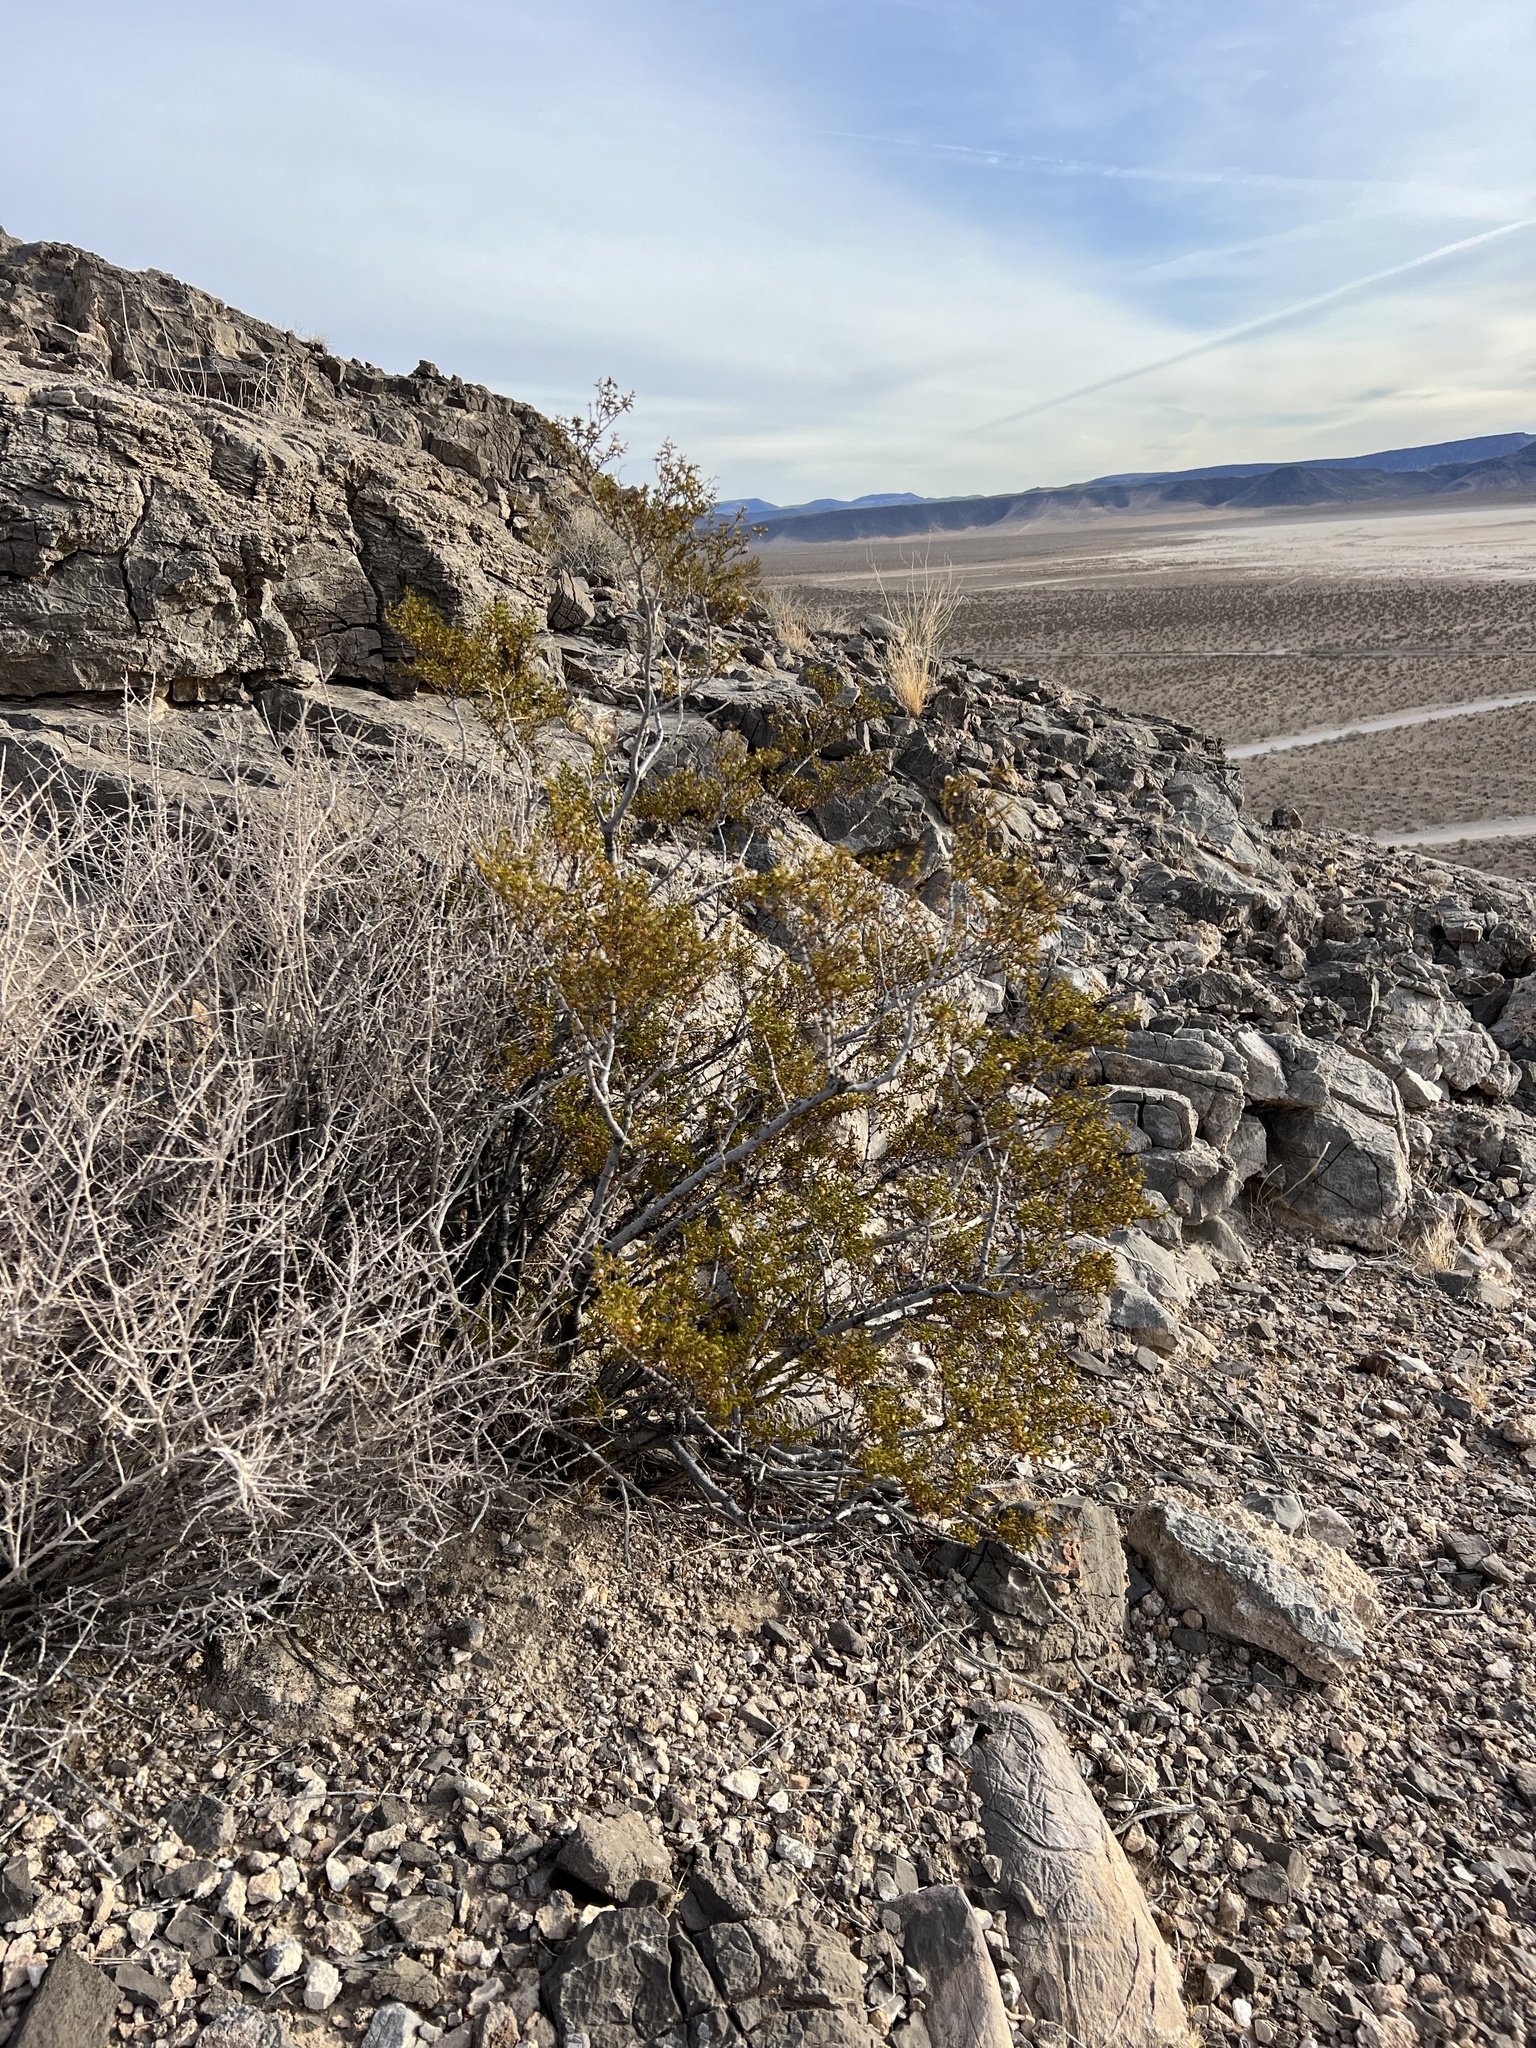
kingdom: Plantae
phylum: Tracheophyta
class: Magnoliopsida
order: Zygophyllales
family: Zygophyllaceae
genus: Larrea
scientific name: Larrea tridentata
